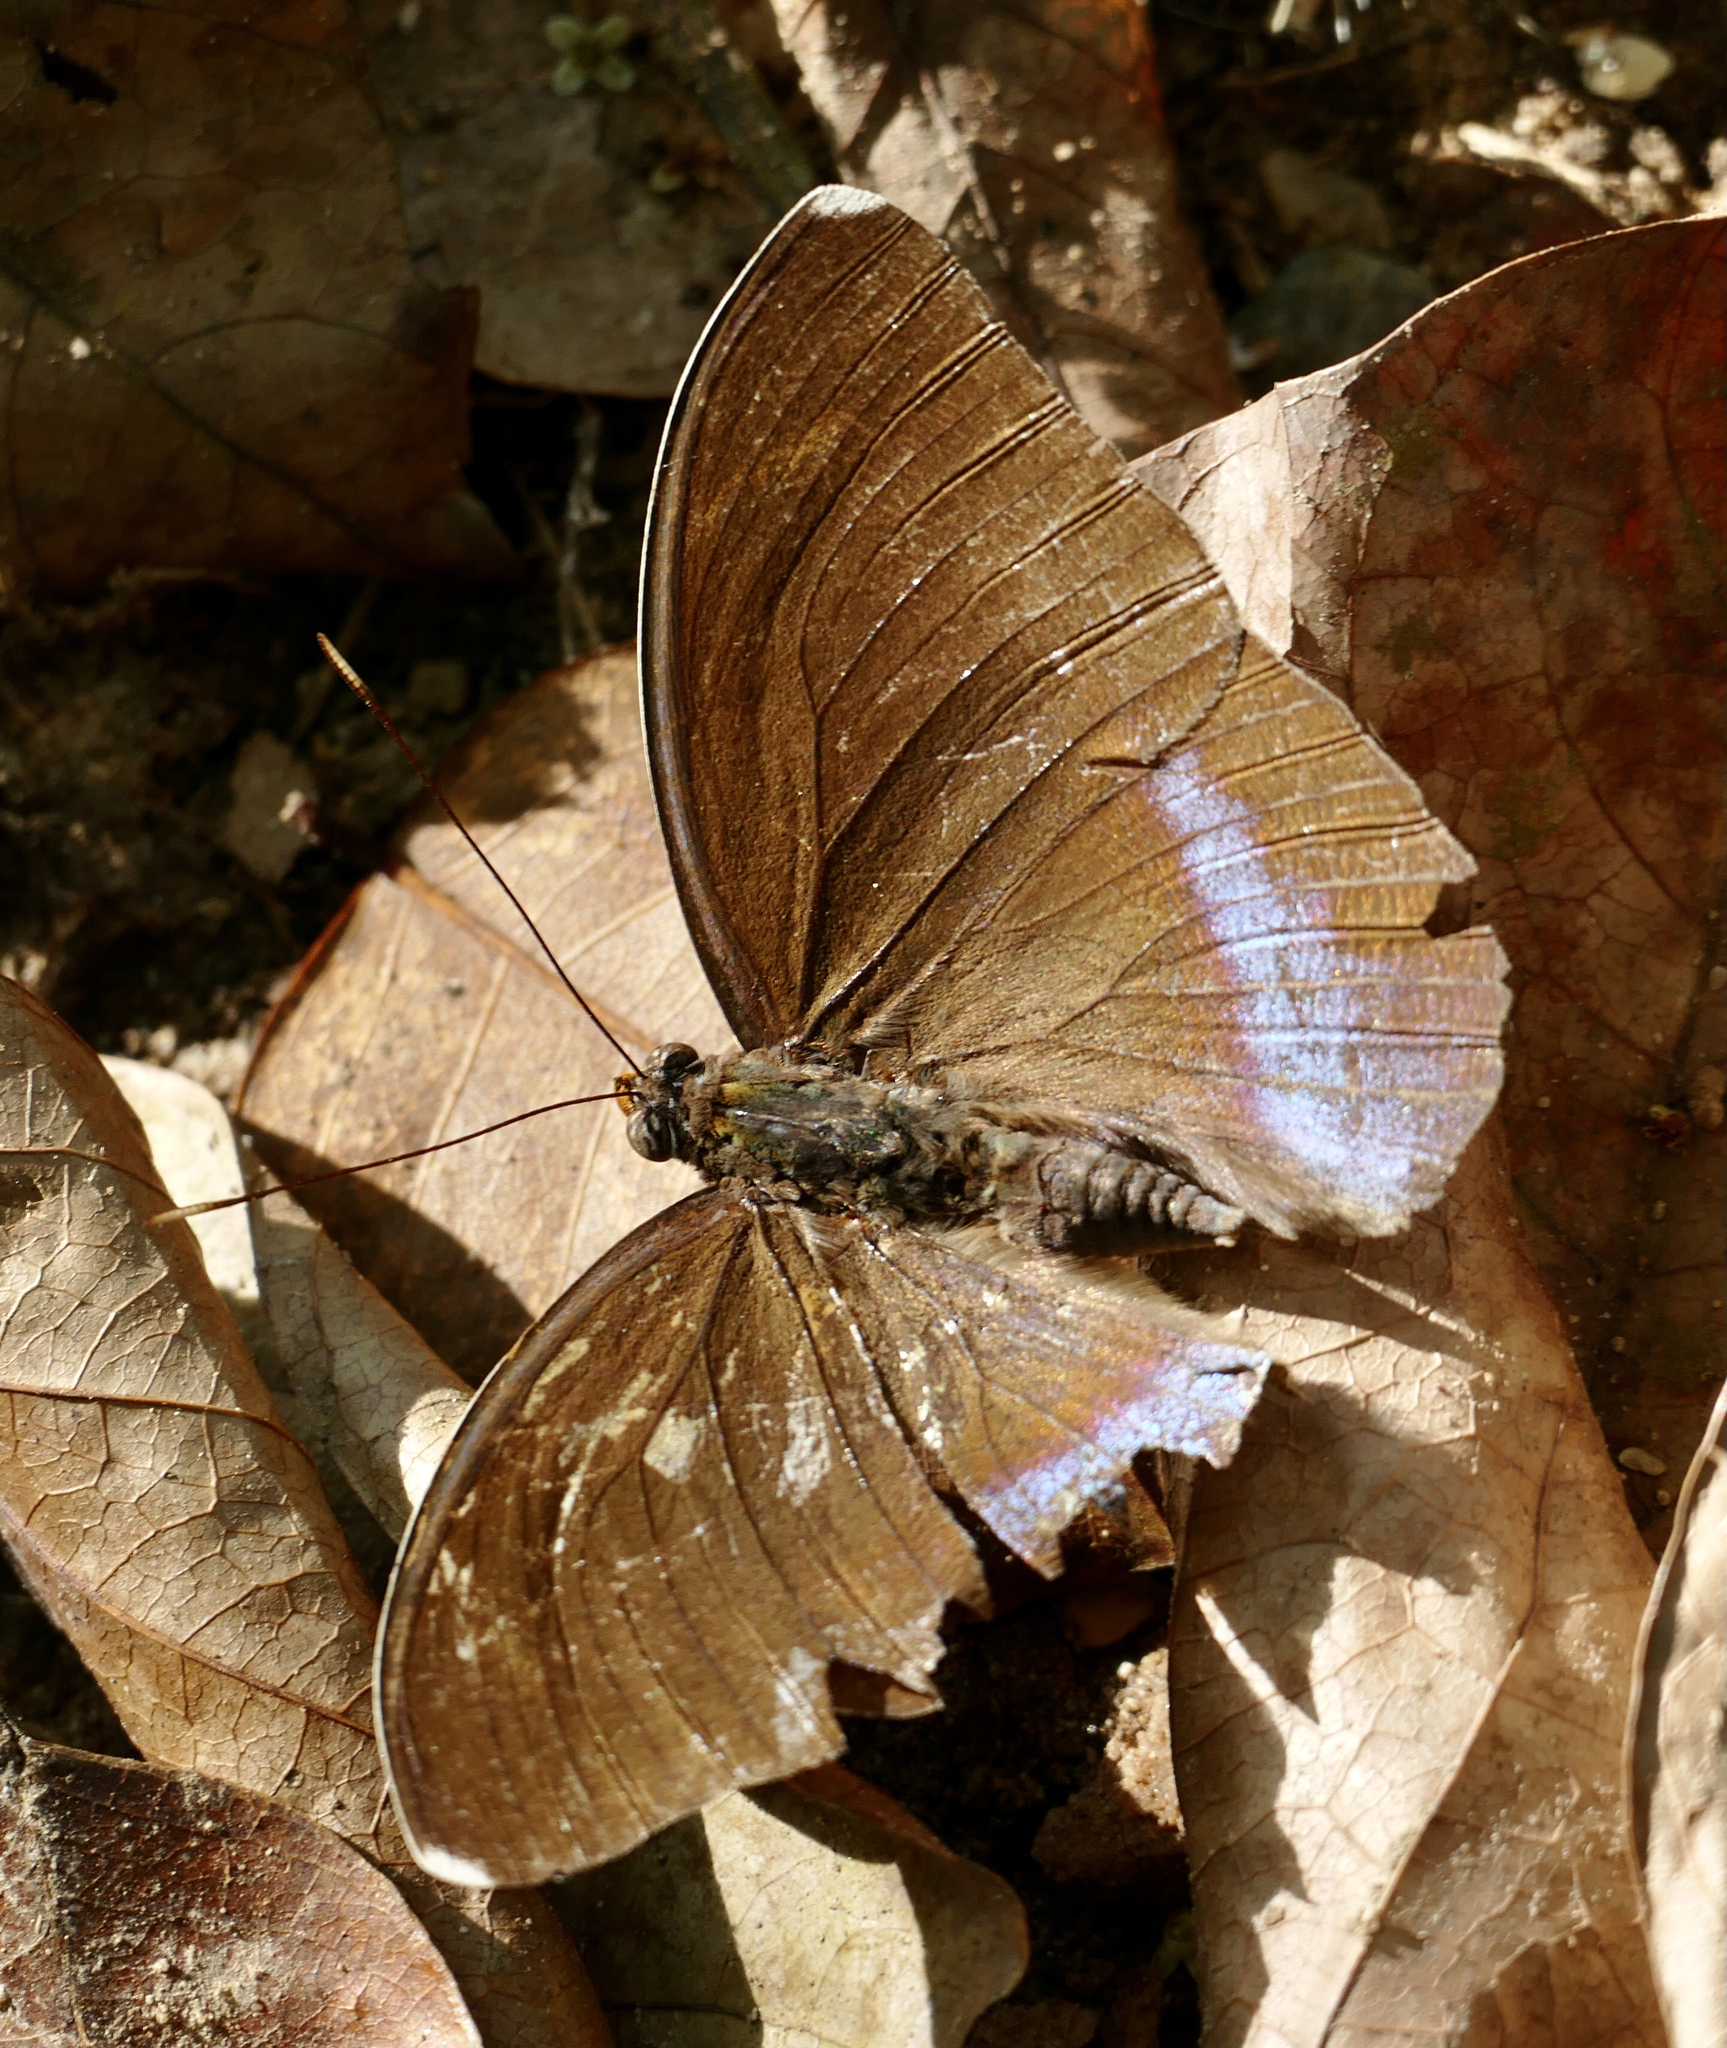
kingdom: Animalia
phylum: Arthropoda
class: Insecta
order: Lepidoptera
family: Nymphalidae
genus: Euphaedra
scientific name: Euphaedra harpalyce
